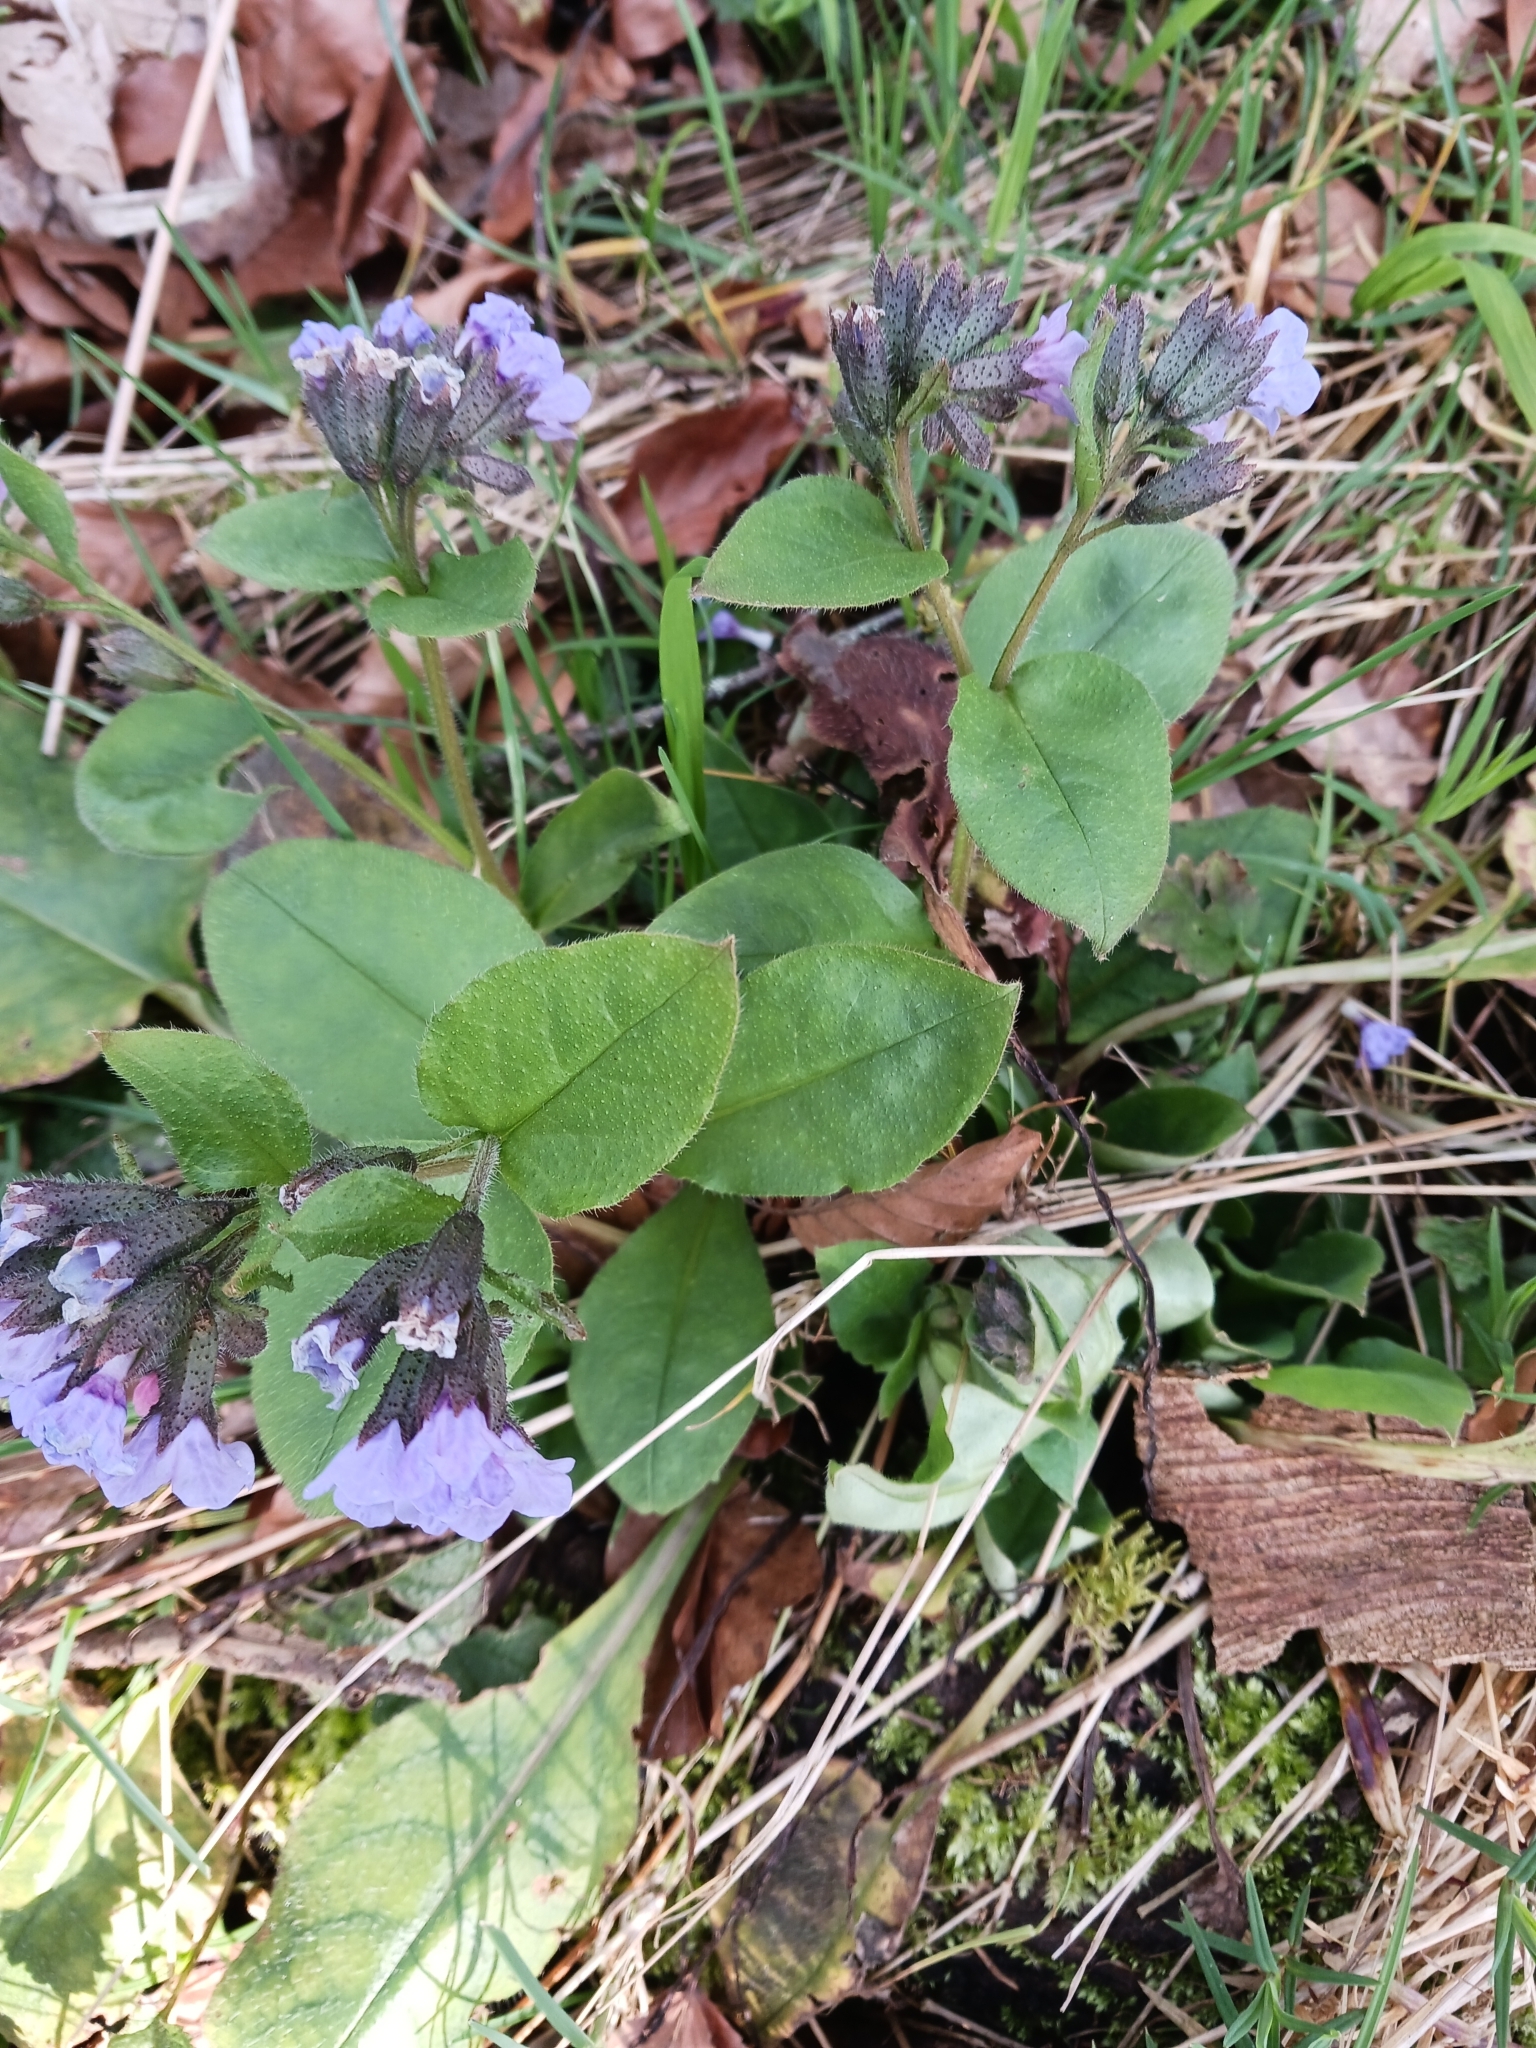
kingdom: Plantae
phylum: Tracheophyta
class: Magnoliopsida
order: Boraginales
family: Boraginaceae
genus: Pulmonaria
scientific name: Pulmonaria obscura
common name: Suffolk lungwort
